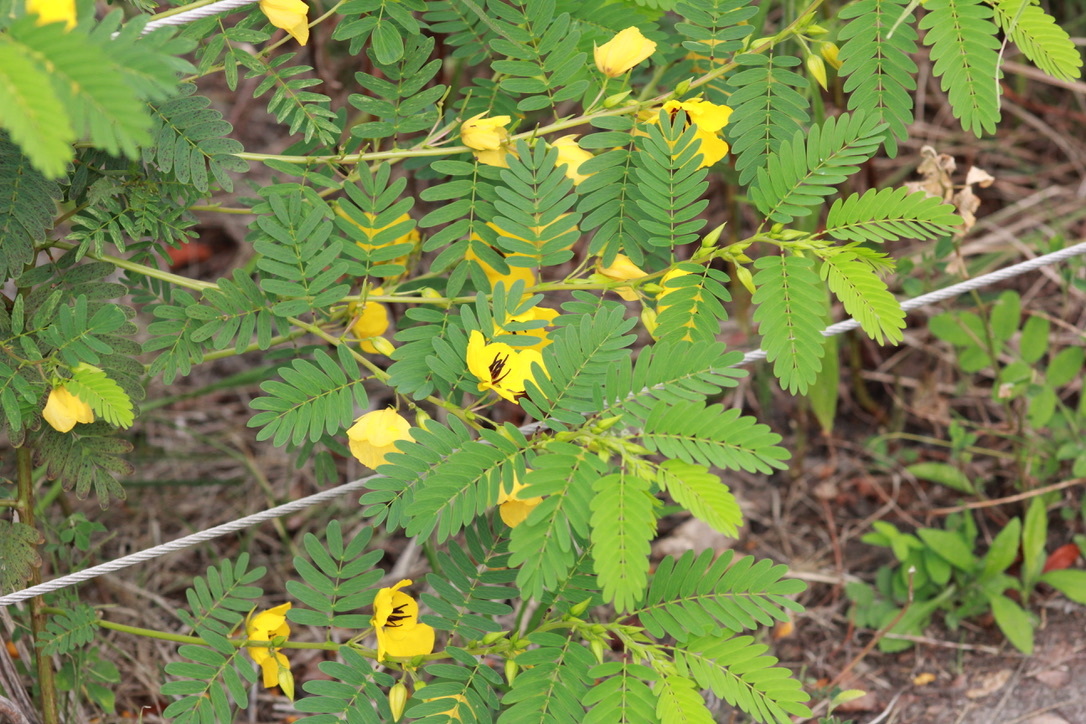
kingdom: Plantae
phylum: Tracheophyta
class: Magnoliopsida
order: Fabales
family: Fabaceae
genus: Chamaecrista
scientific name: Chamaecrista fasciculata
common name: Golden cassia
